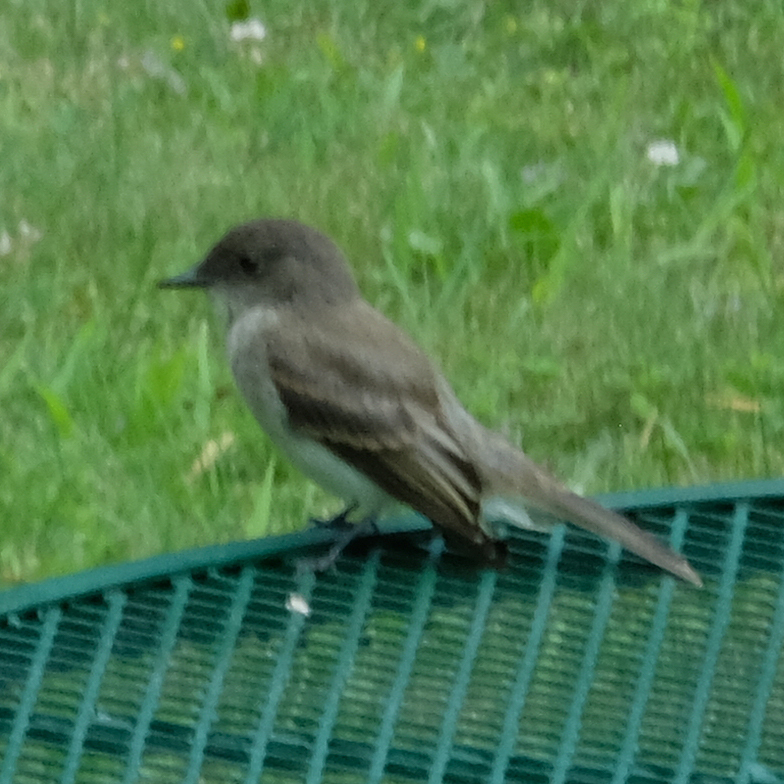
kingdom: Animalia
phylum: Chordata
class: Aves
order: Passeriformes
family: Tyrannidae
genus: Sayornis
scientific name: Sayornis phoebe
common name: Eastern phoebe
